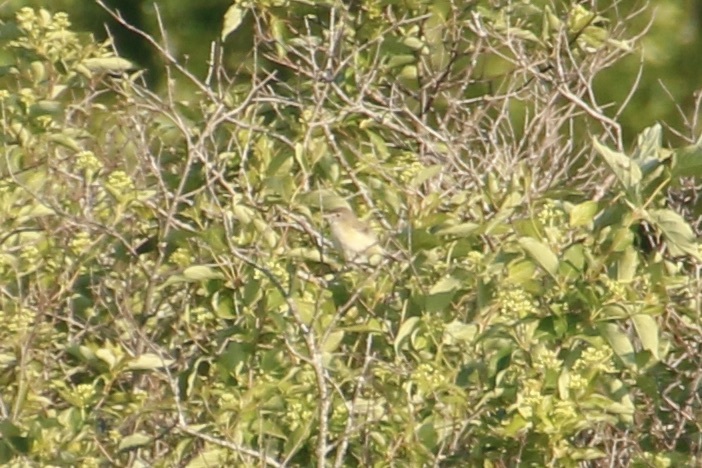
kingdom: Animalia
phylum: Chordata
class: Aves
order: Passeriformes
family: Vireonidae
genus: Vireo
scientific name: Vireo bellii
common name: Bell's vireo
